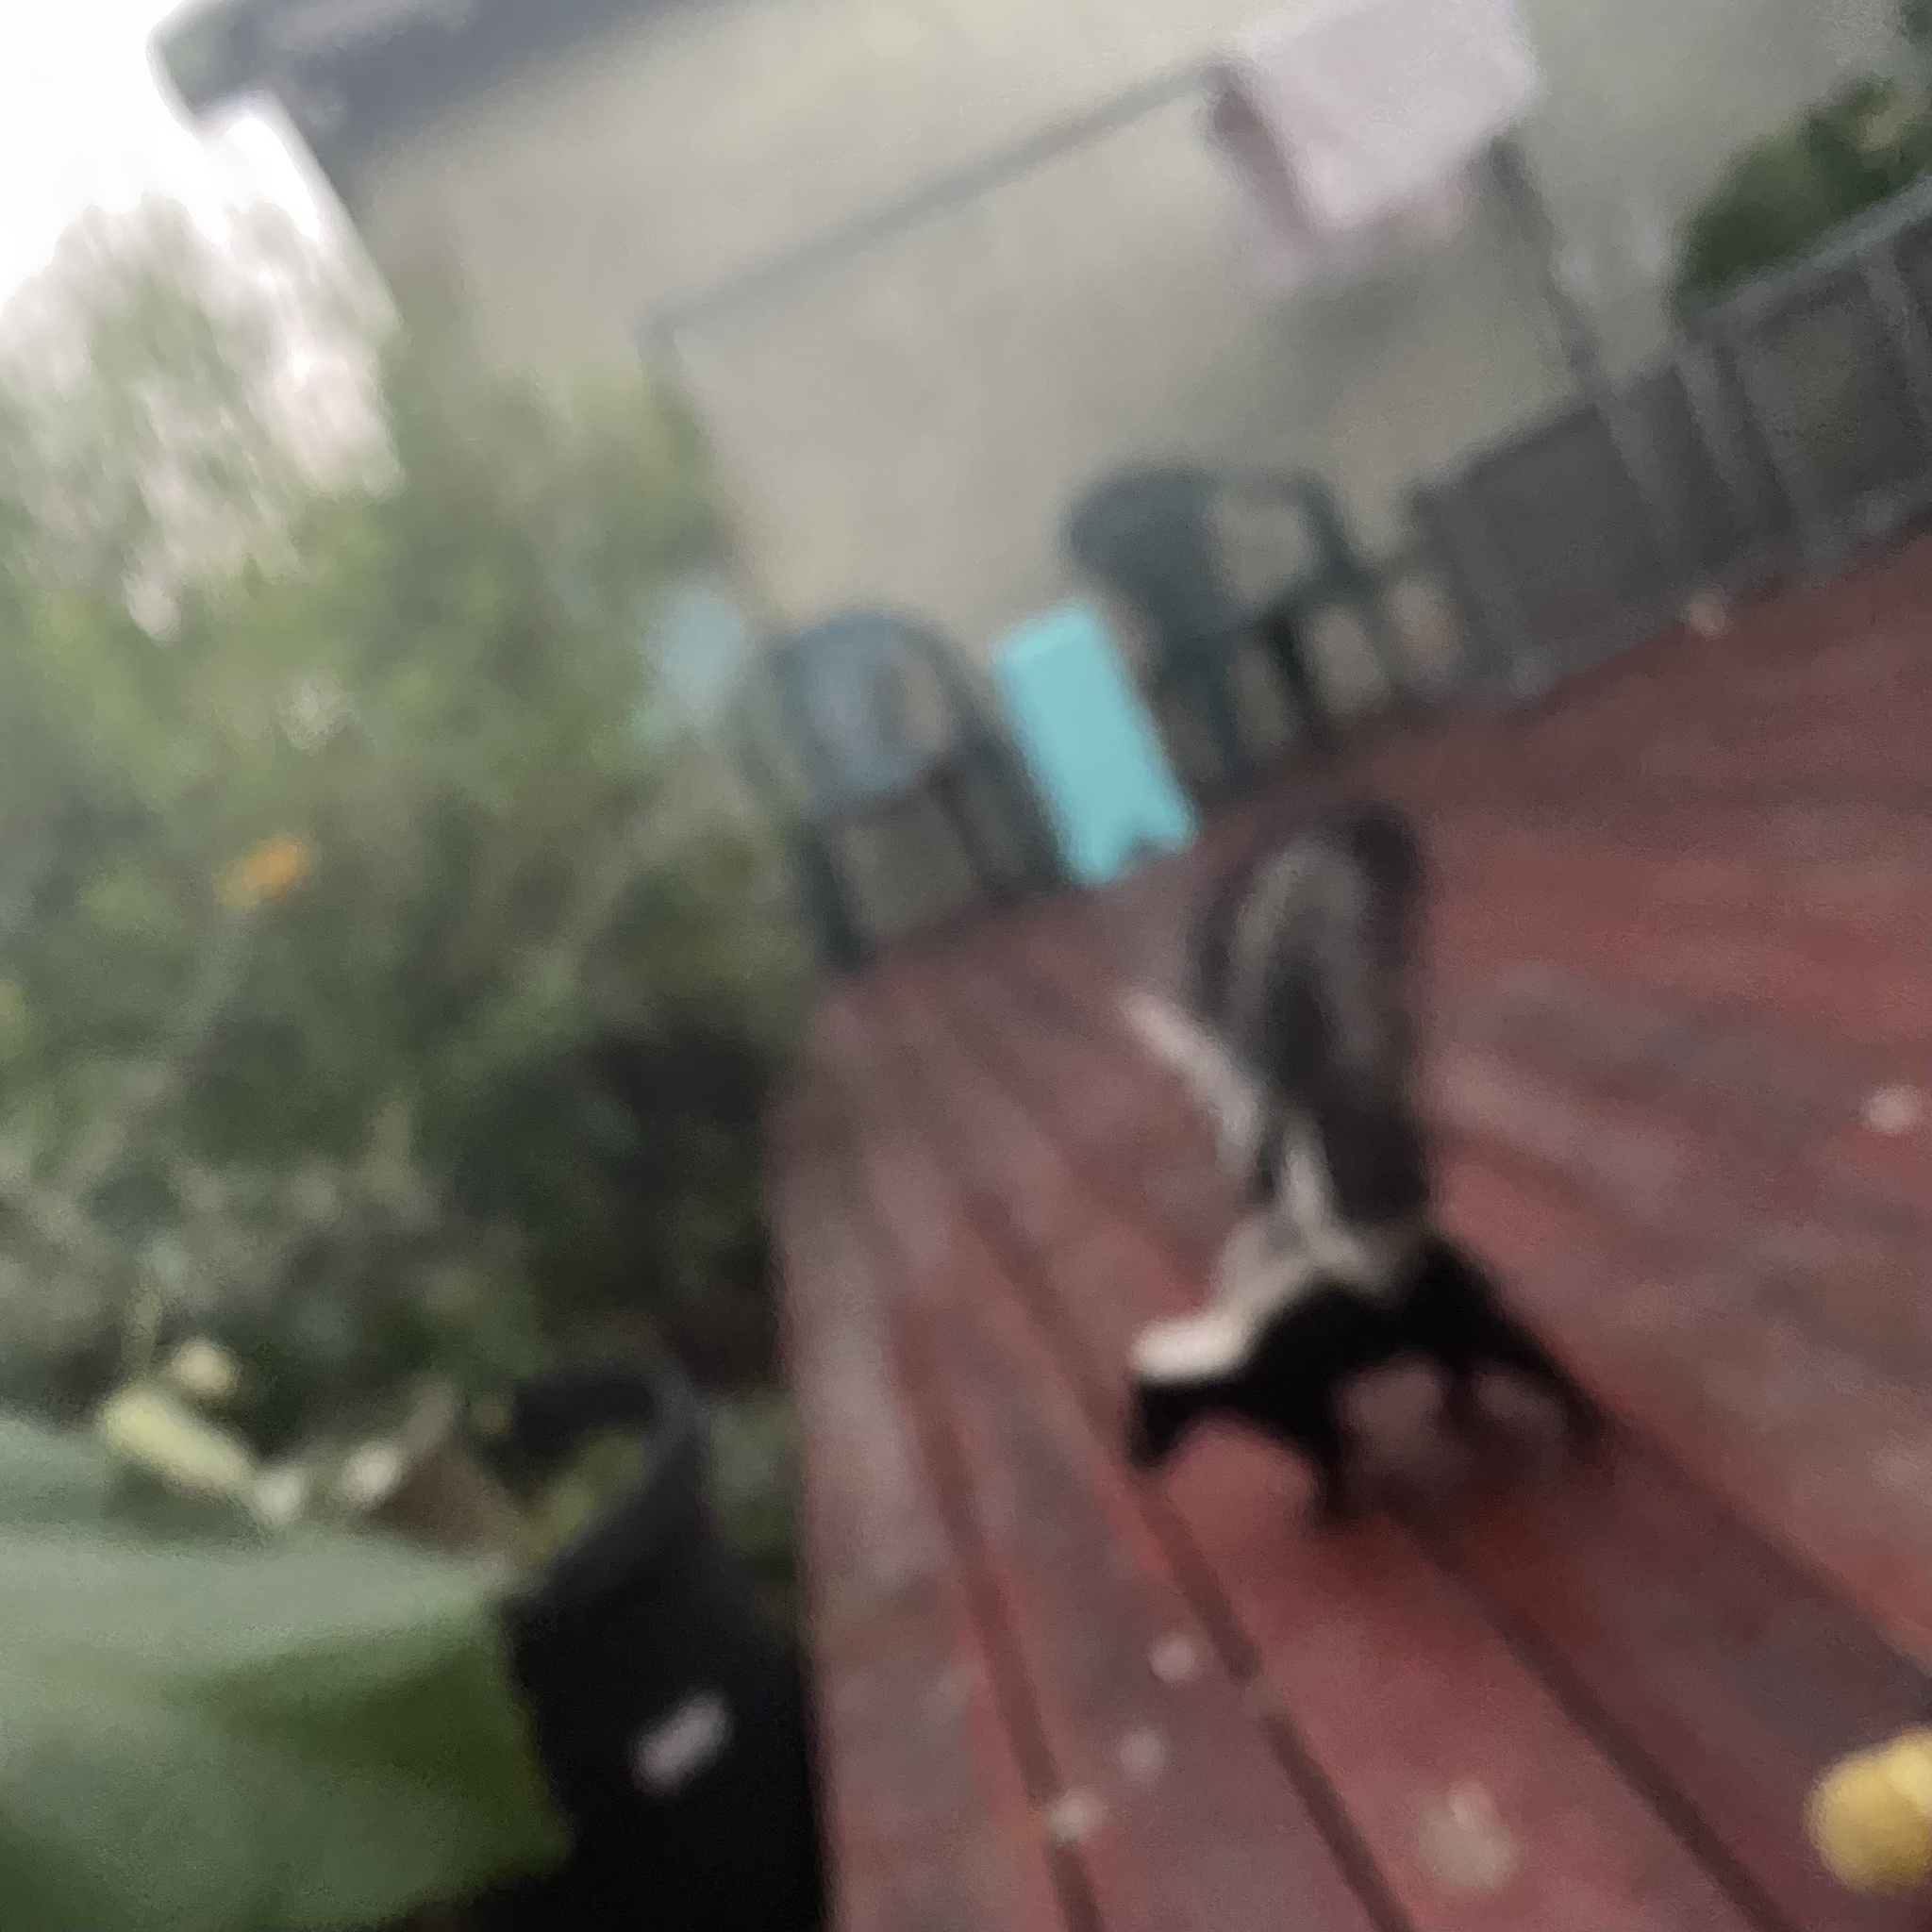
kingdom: Animalia
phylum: Chordata
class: Mammalia
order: Carnivora
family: Mephitidae
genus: Mephitis
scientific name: Mephitis mephitis
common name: Striped skunk
